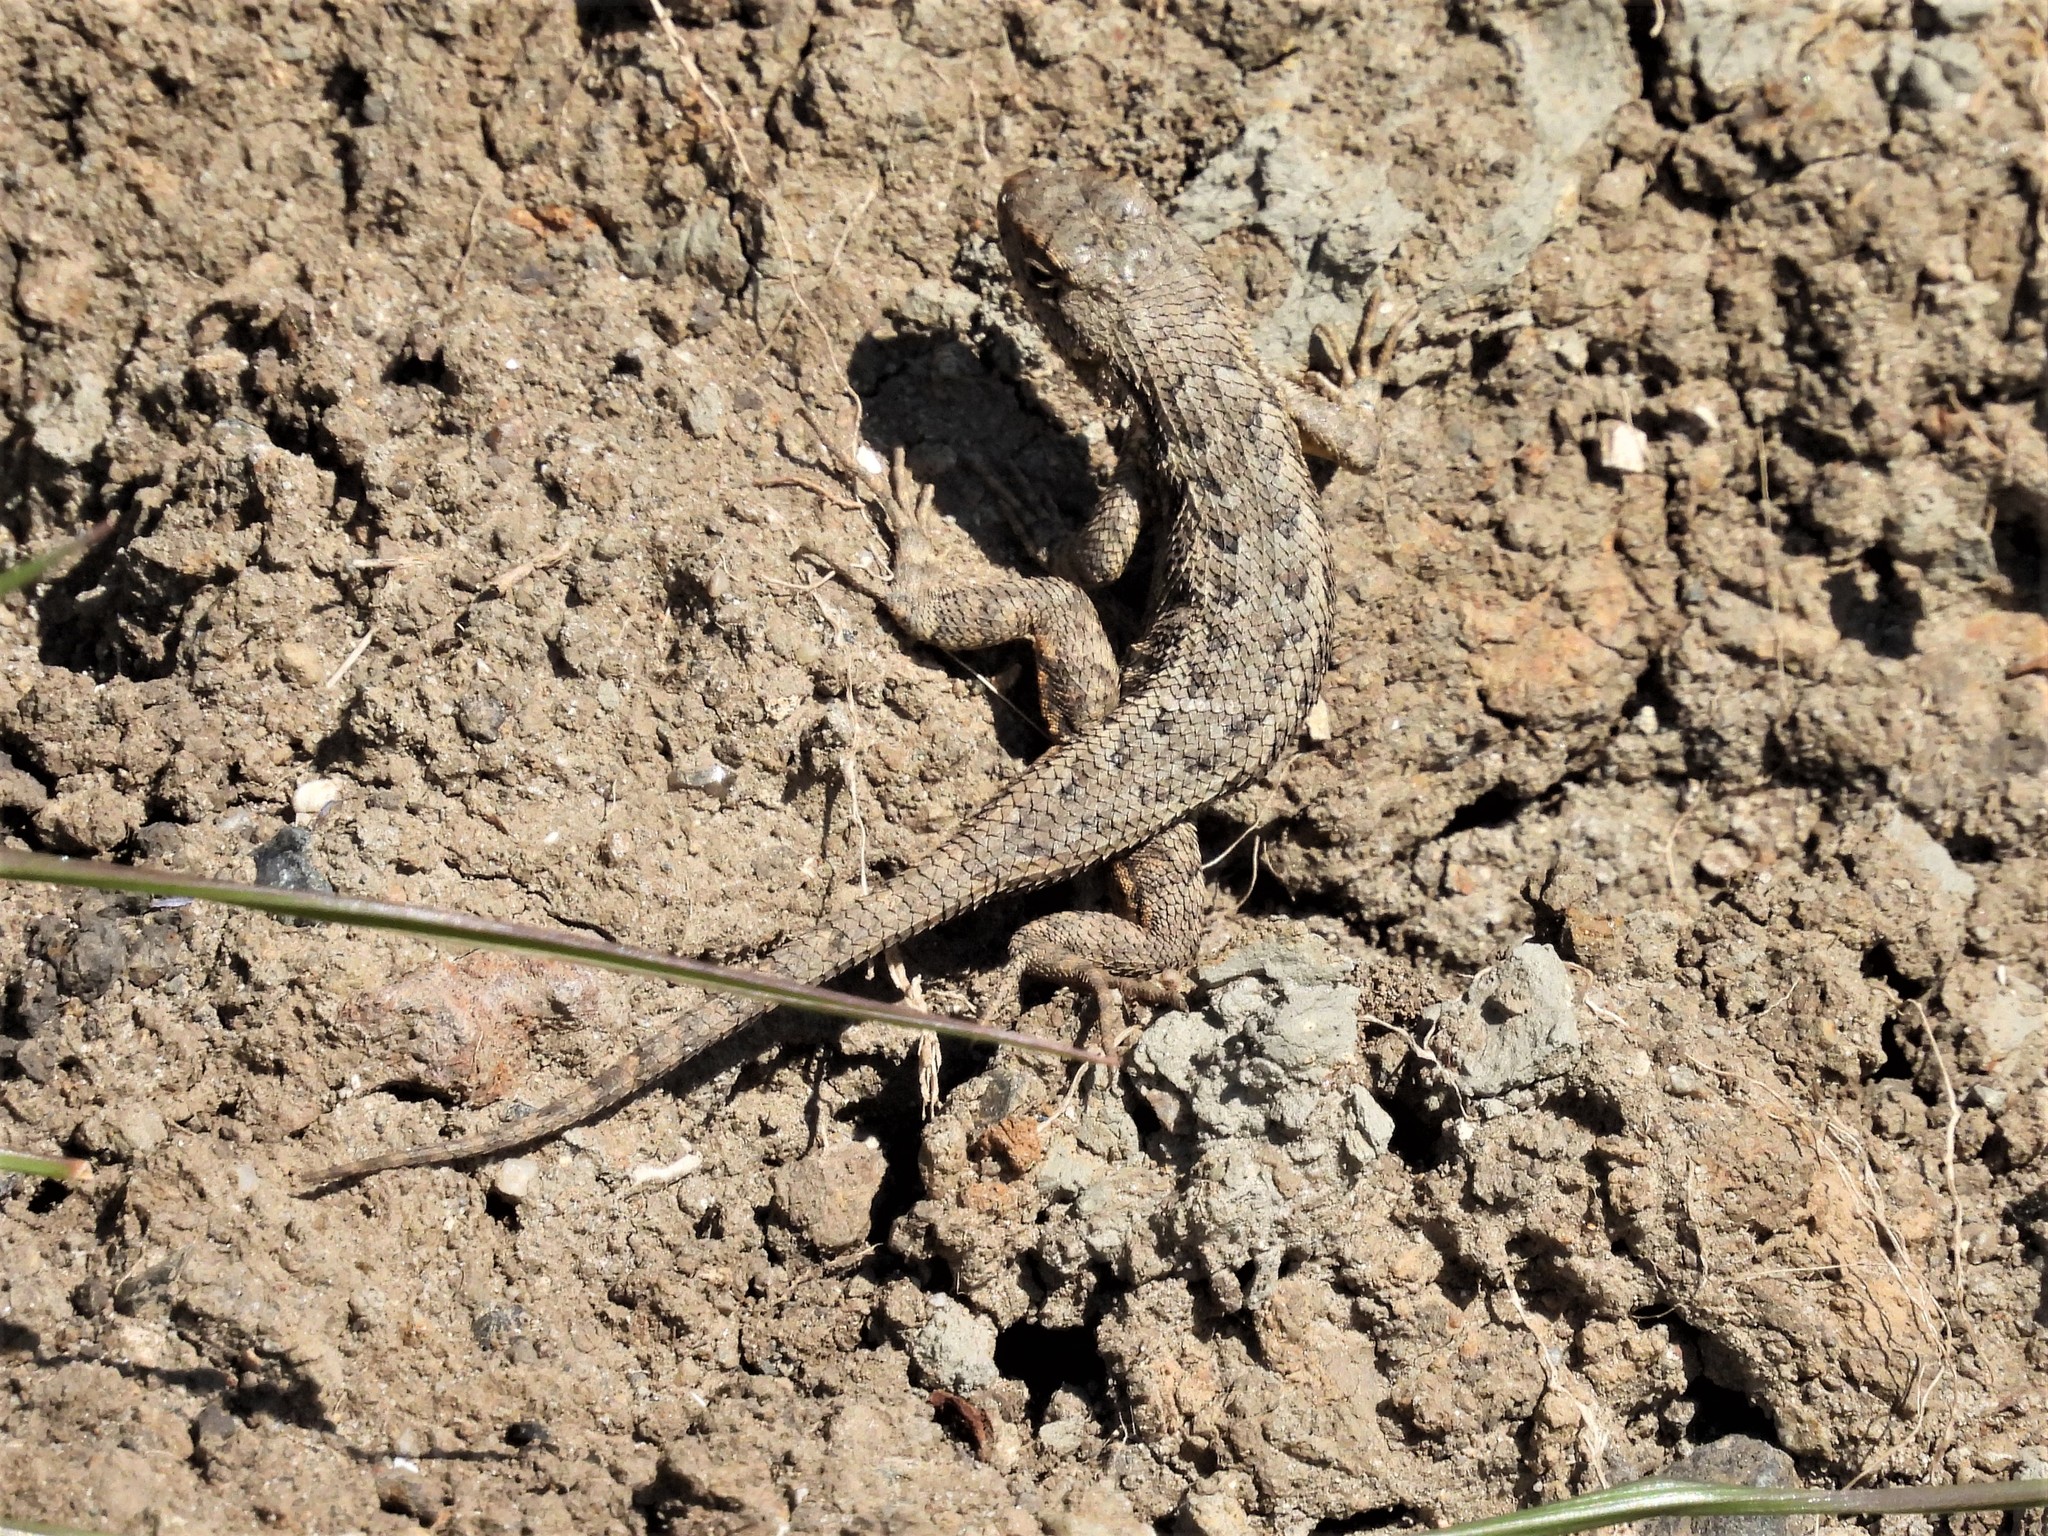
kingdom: Animalia
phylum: Chordata
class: Squamata
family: Phrynosomatidae
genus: Sceloporus
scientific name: Sceloporus occidentalis
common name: Western fence lizard
